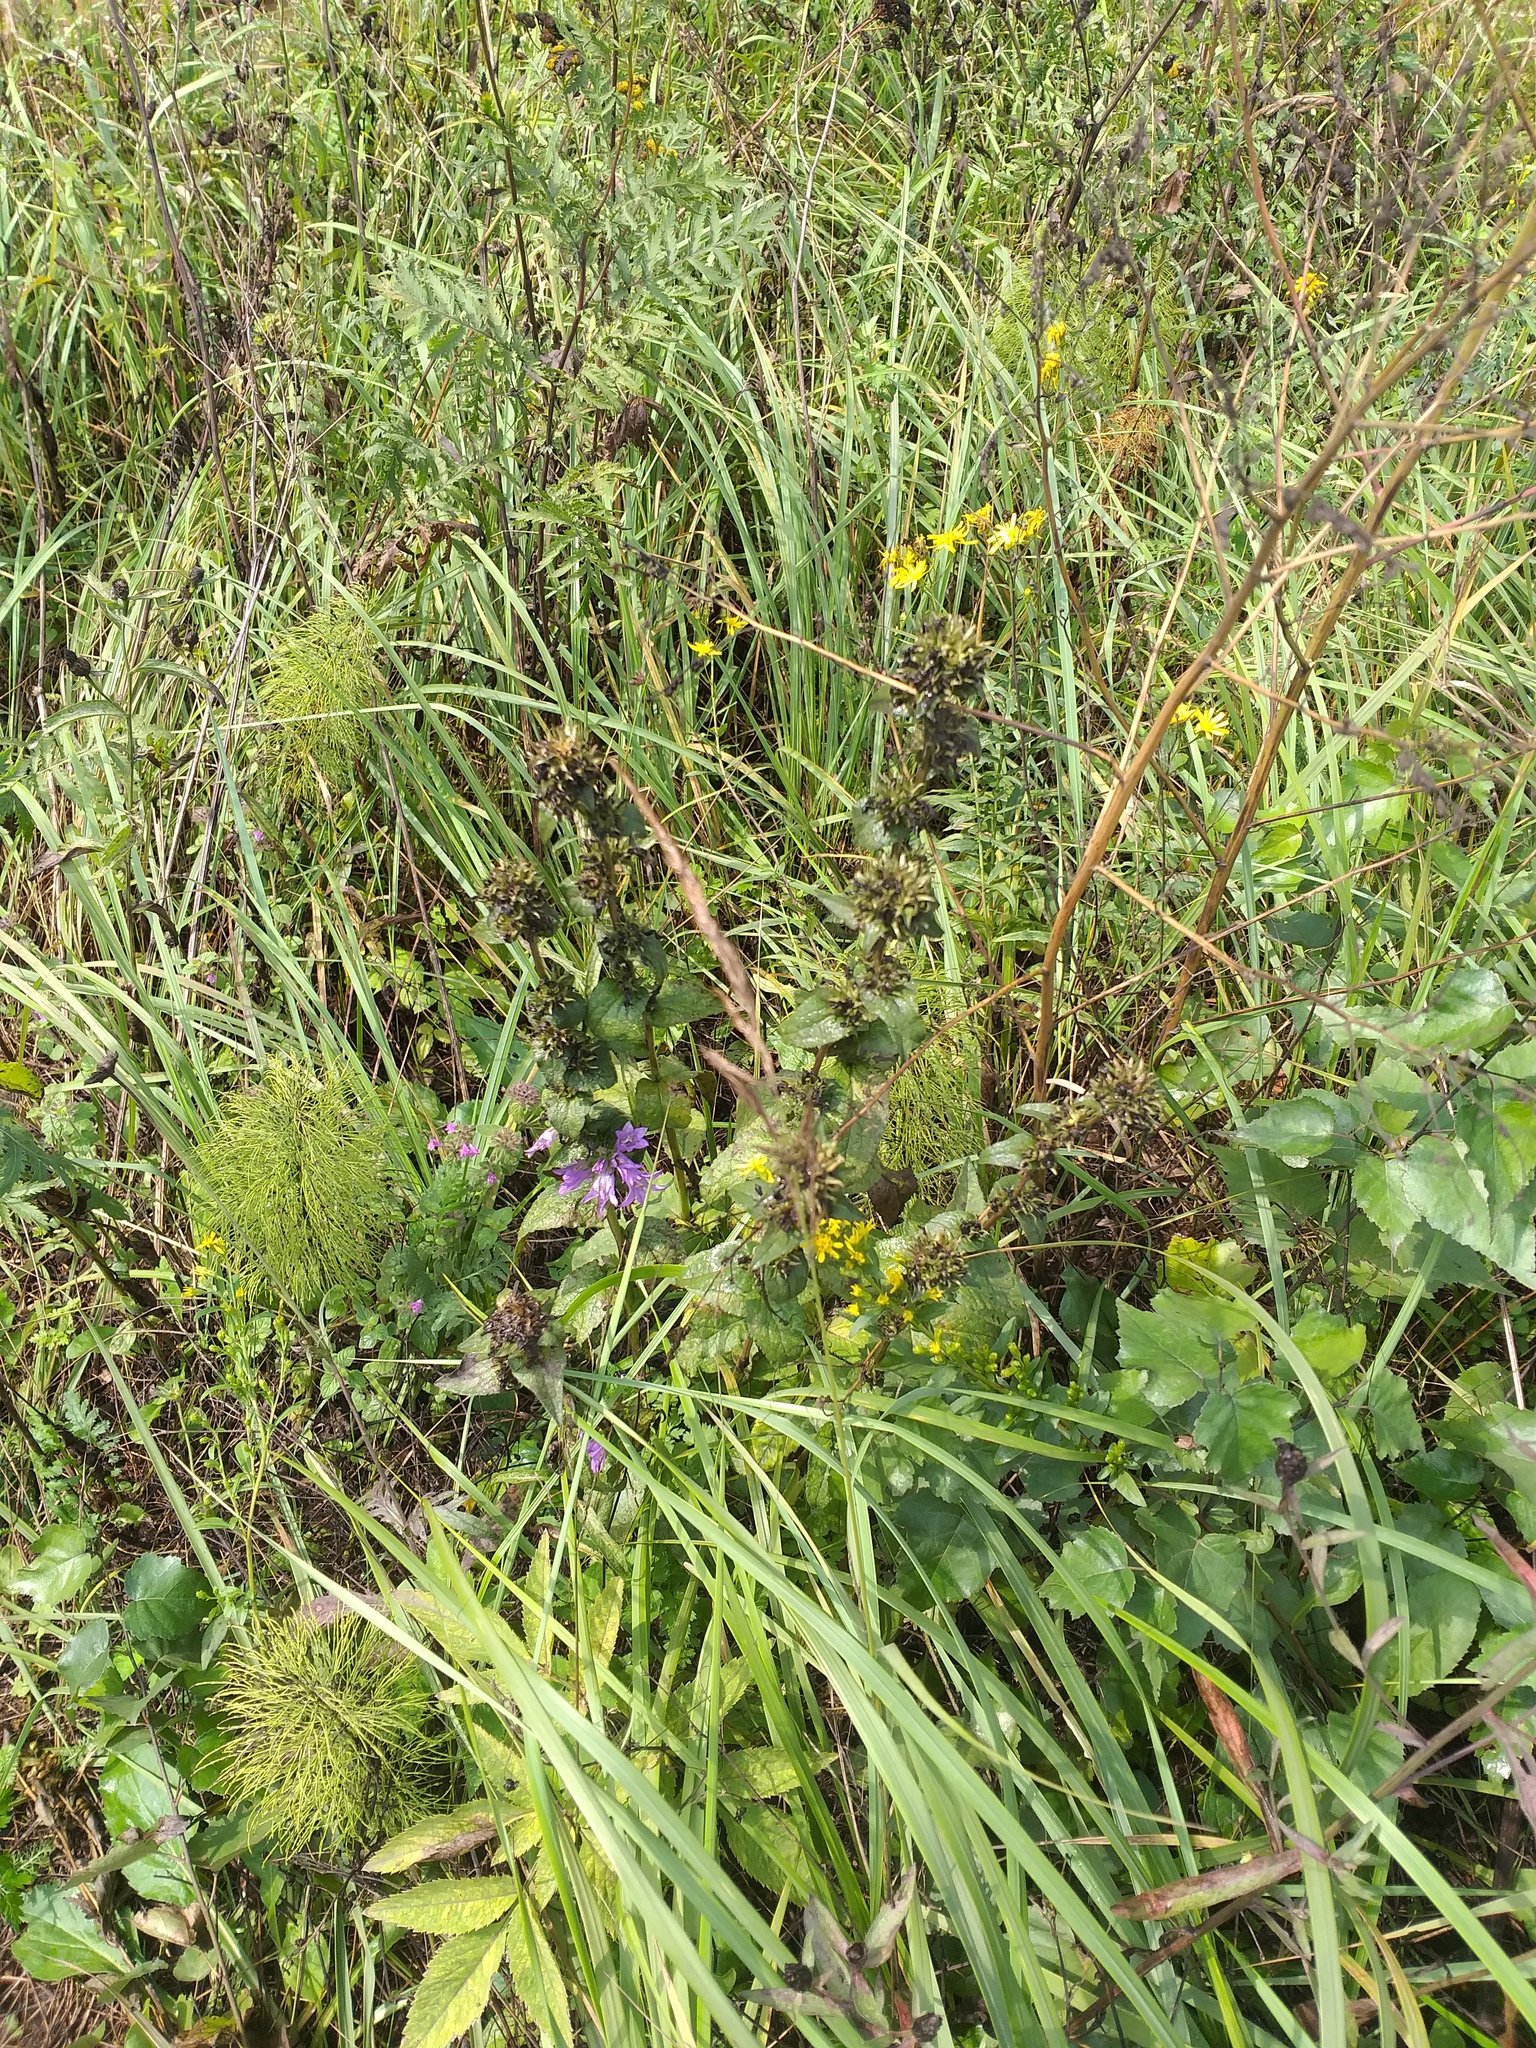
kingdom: Plantae
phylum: Tracheophyta
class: Magnoliopsida
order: Asterales
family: Campanulaceae
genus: Campanula
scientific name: Campanula glomerata
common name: Clustered bellflower
